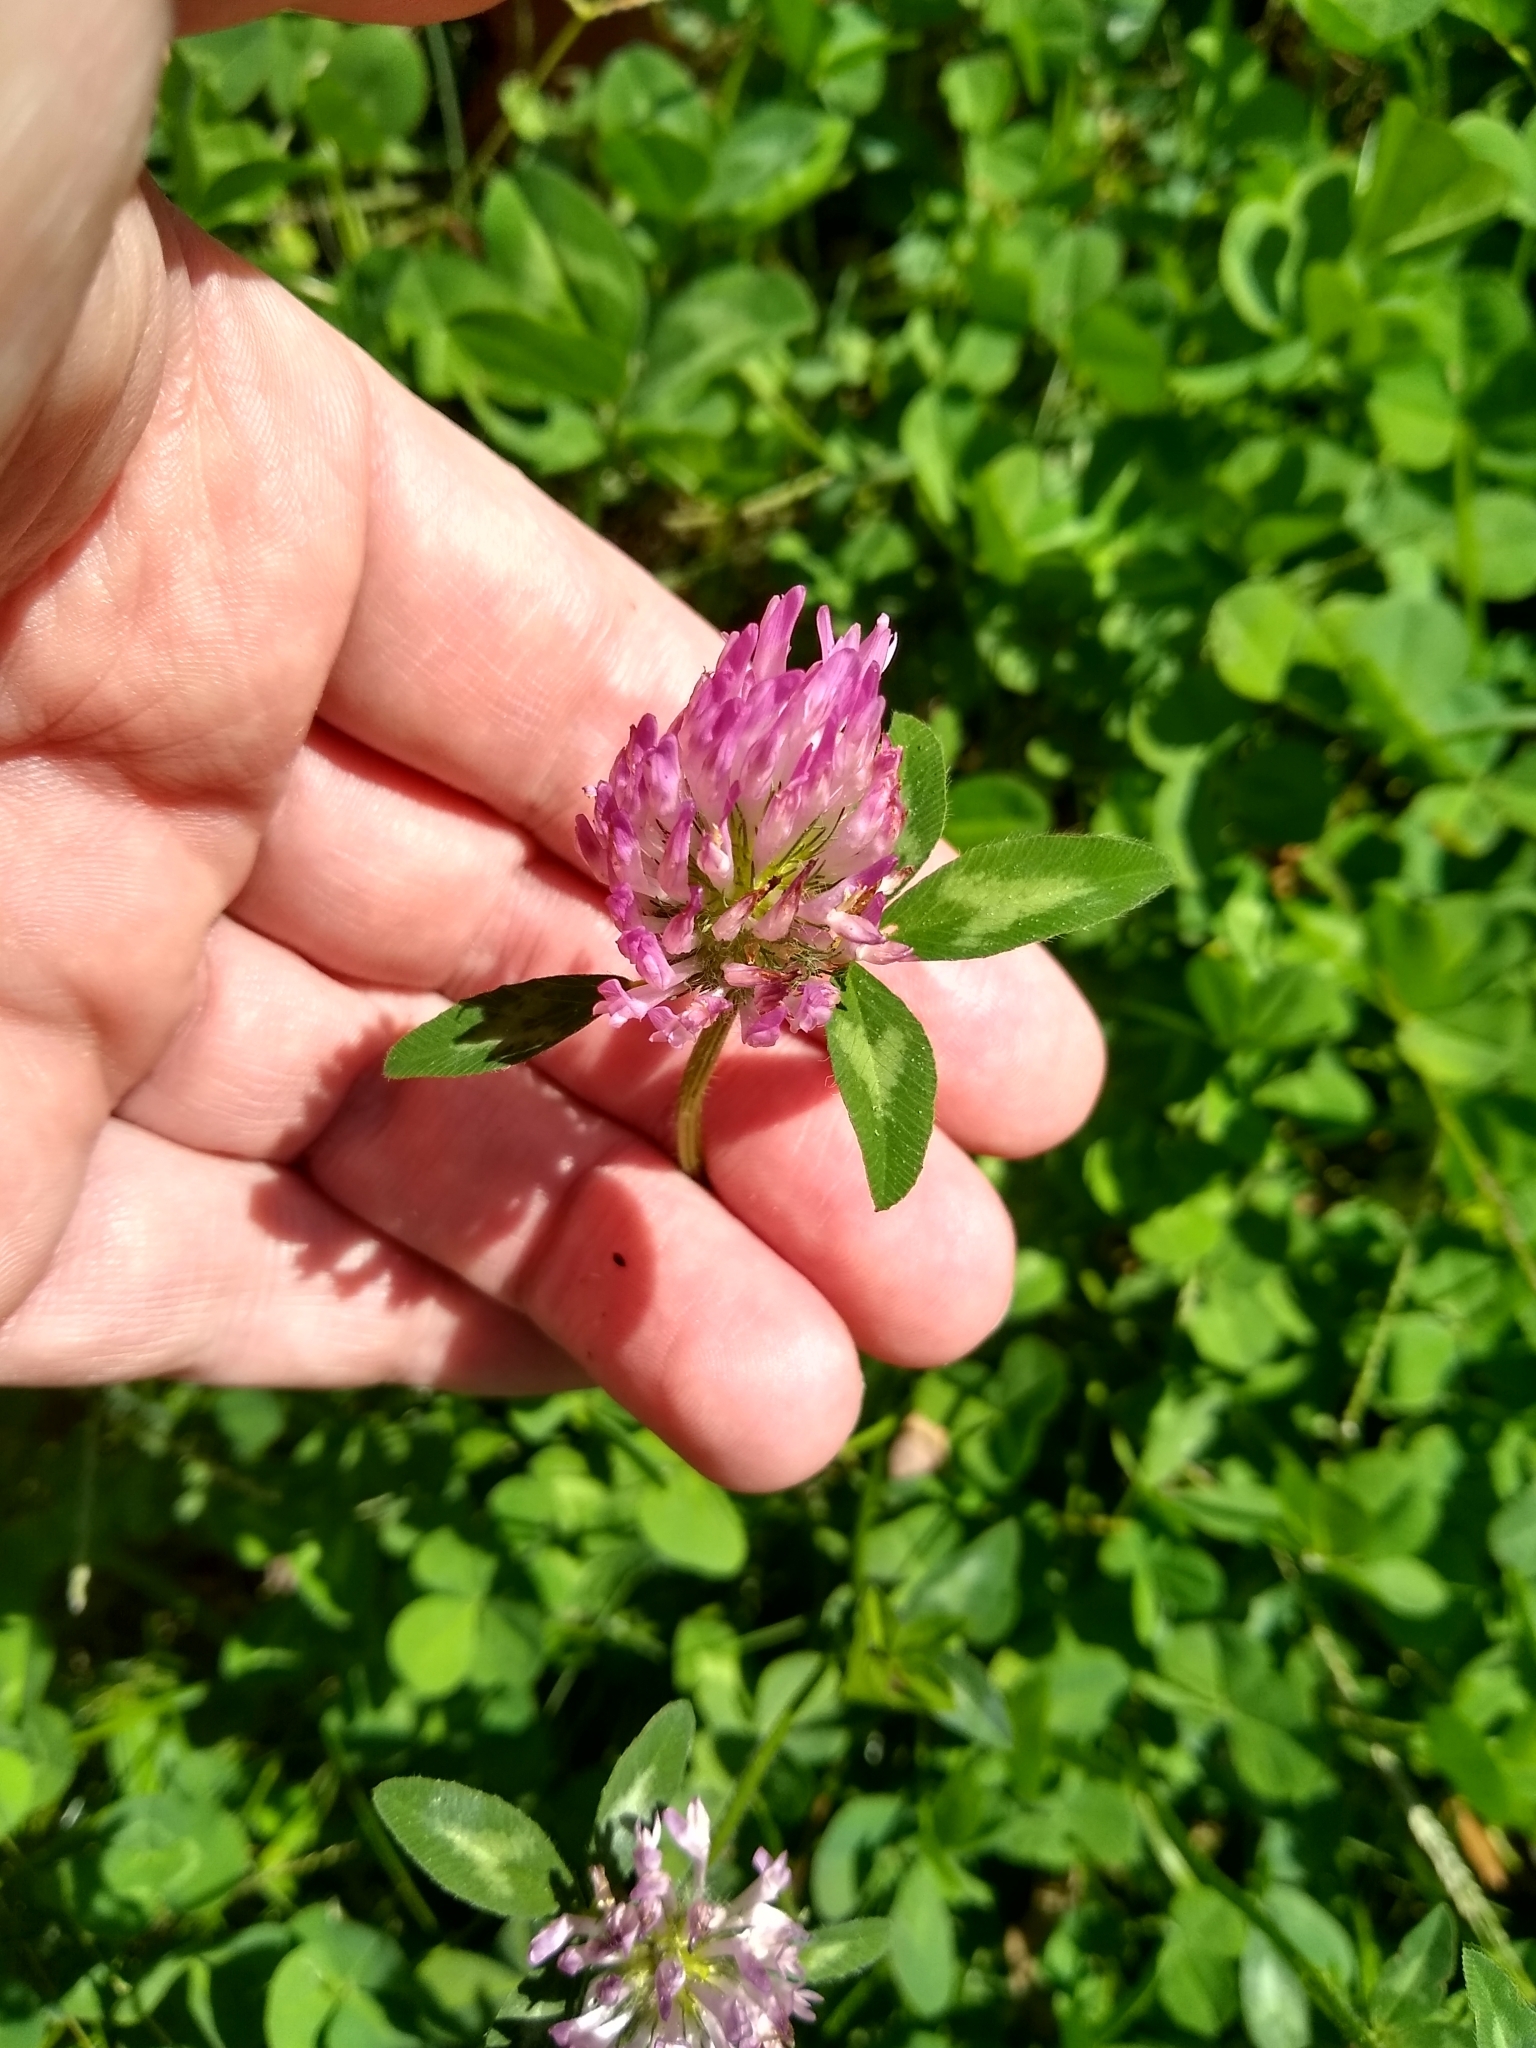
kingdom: Plantae
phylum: Tracheophyta
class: Magnoliopsida
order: Fabales
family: Fabaceae
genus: Trifolium
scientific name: Trifolium pratense
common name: Red clover
